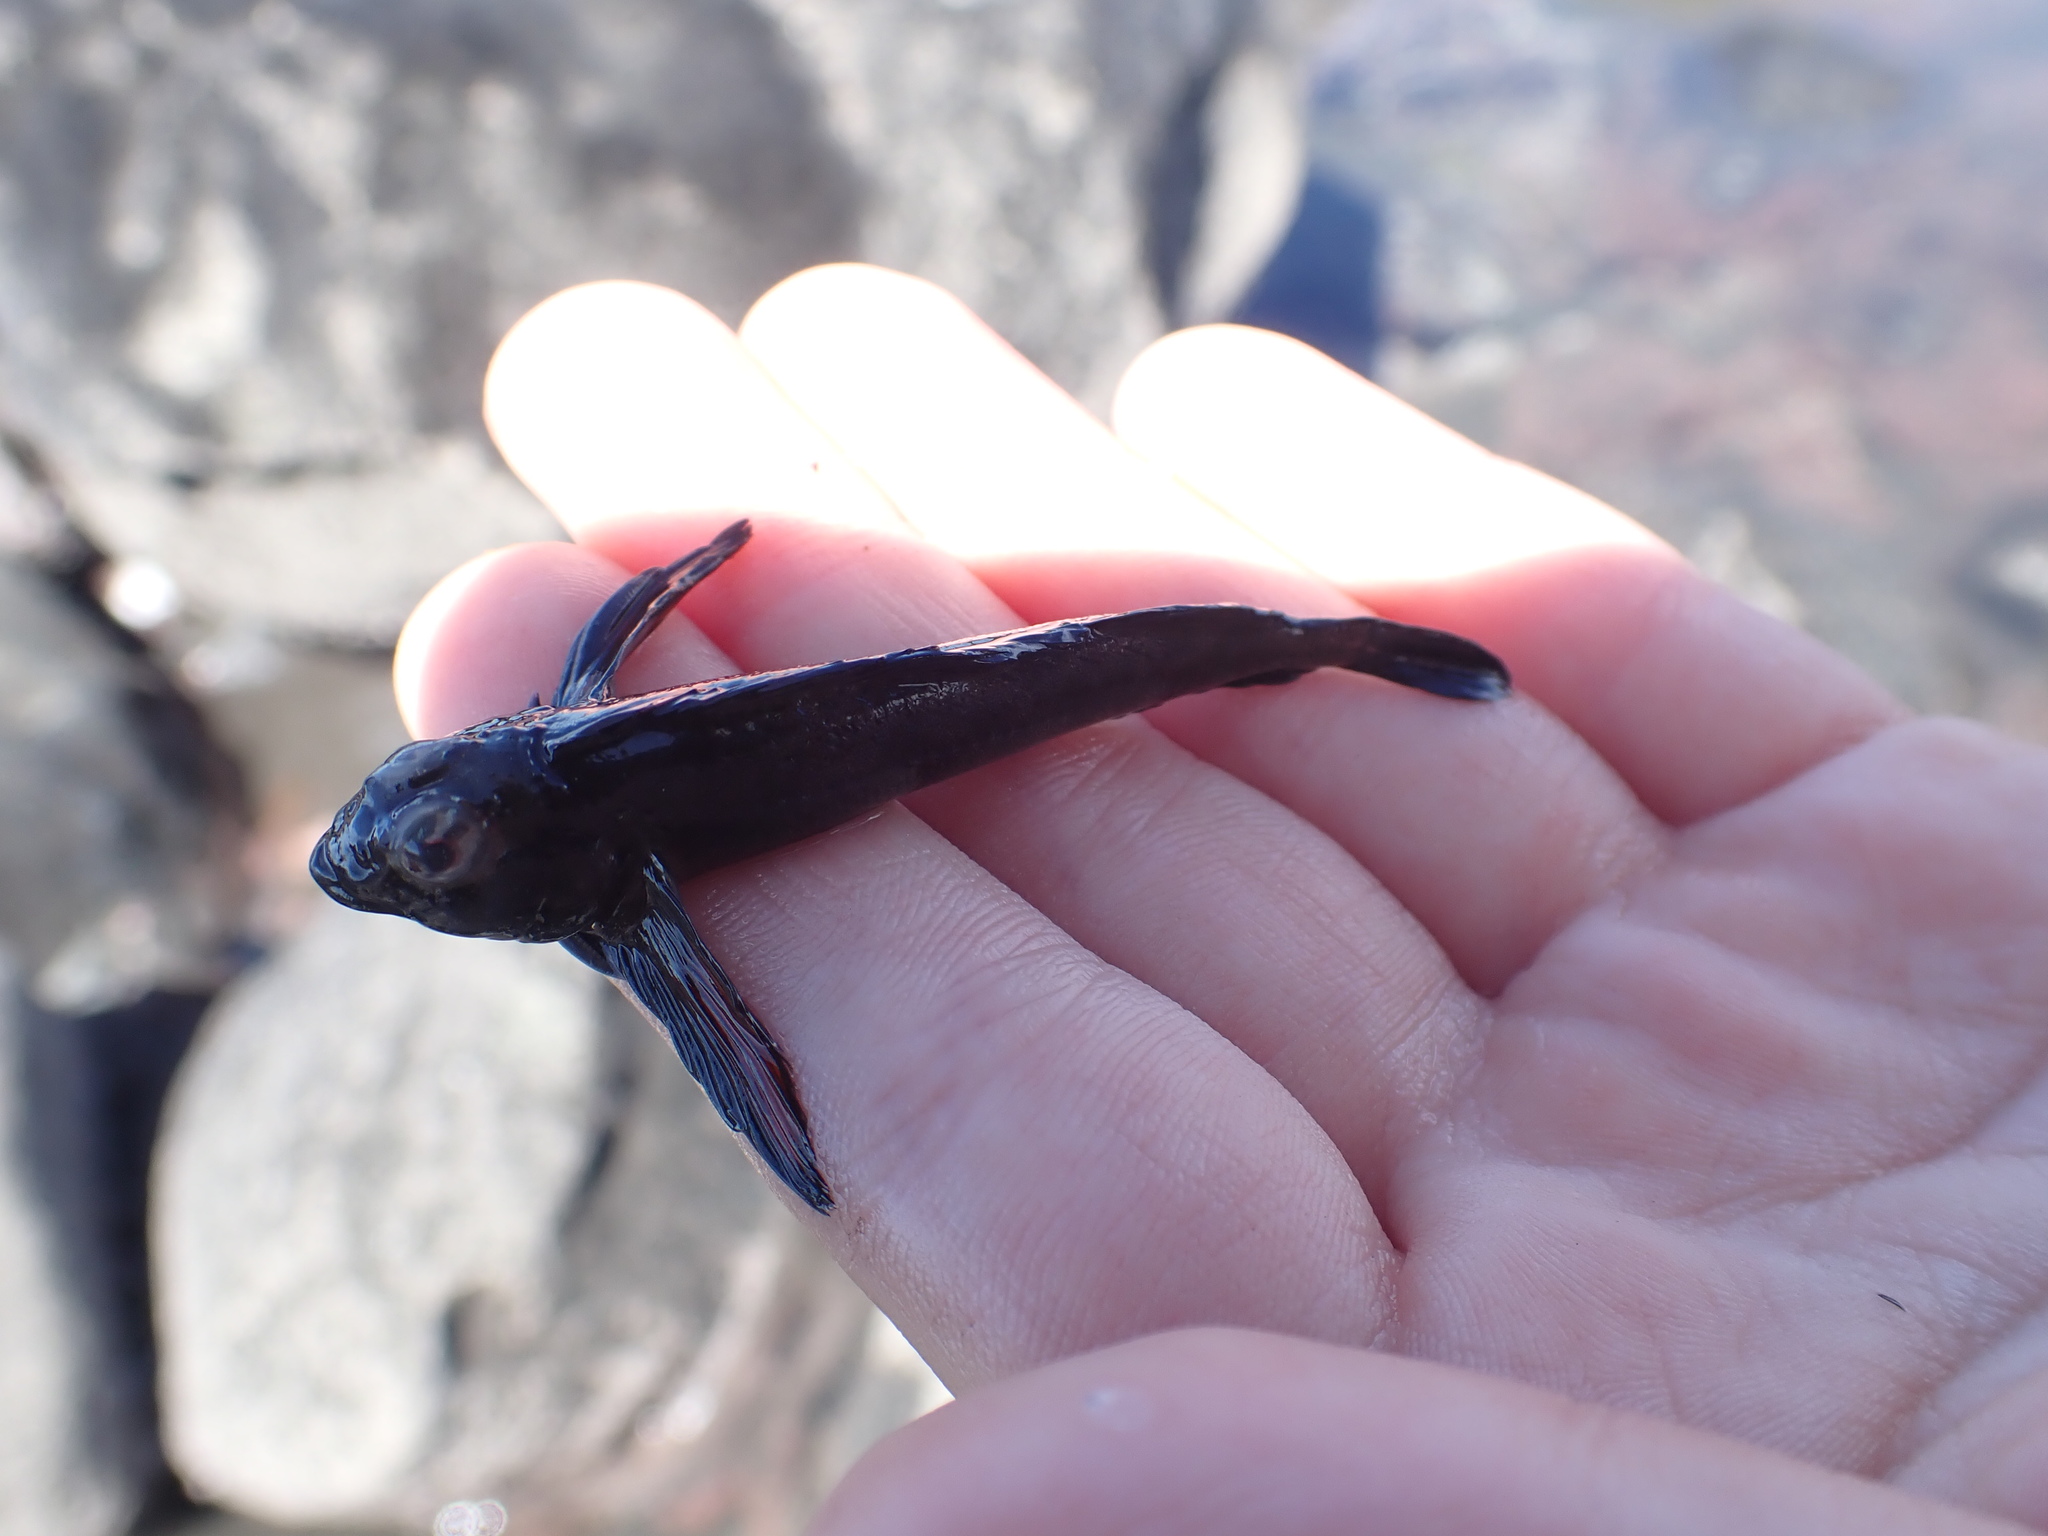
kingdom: Animalia
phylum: Chordata
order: Perciformes
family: Tripterygiidae
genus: Bellapiscis
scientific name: Bellapiscis lesleyae
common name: Mottled twister
